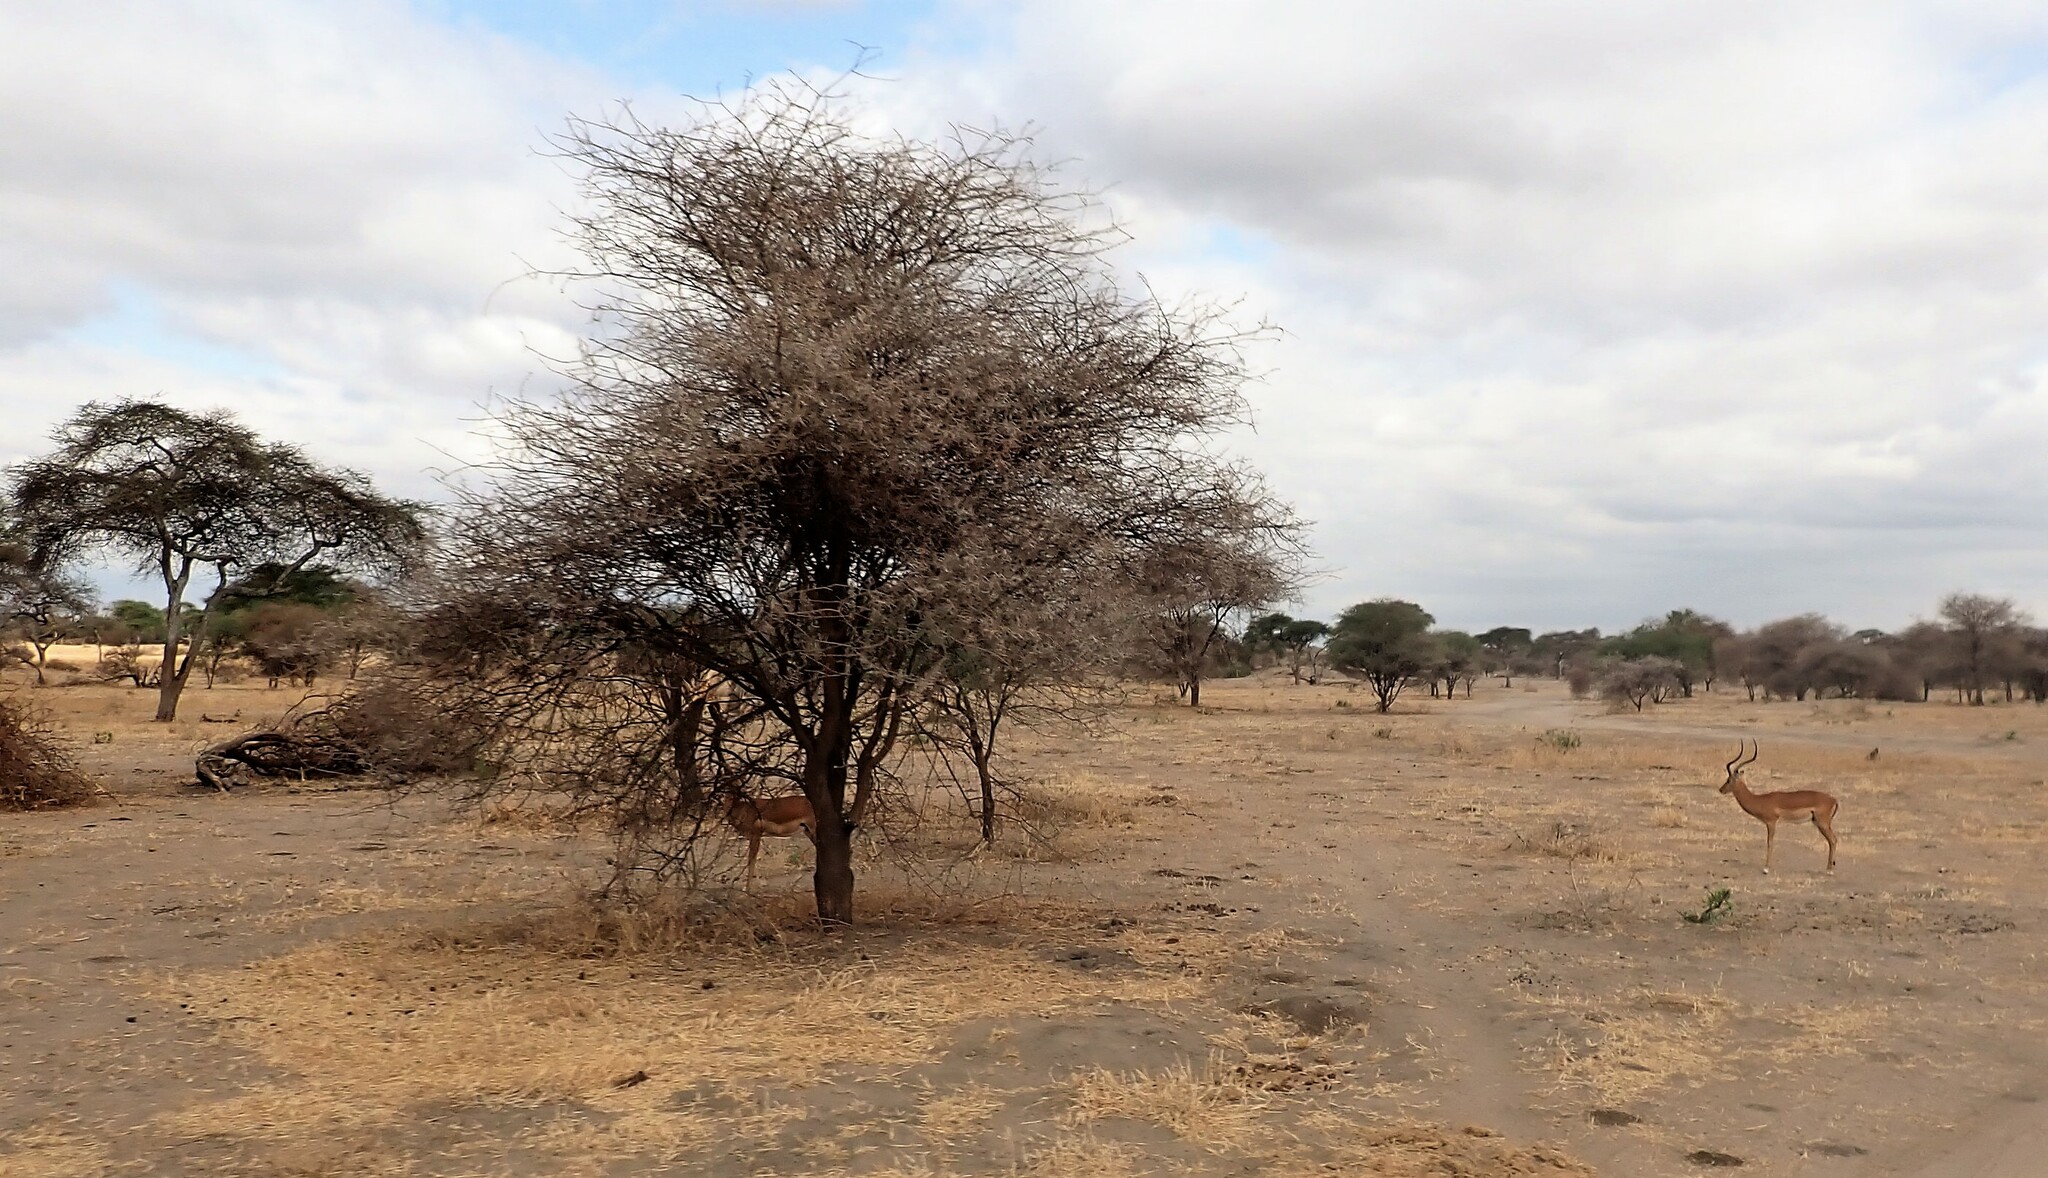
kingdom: Animalia
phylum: Chordata
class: Mammalia
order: Artiodactyla
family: Bovidae
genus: Aepyceros
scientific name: Aepyceros melampus
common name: Impala
